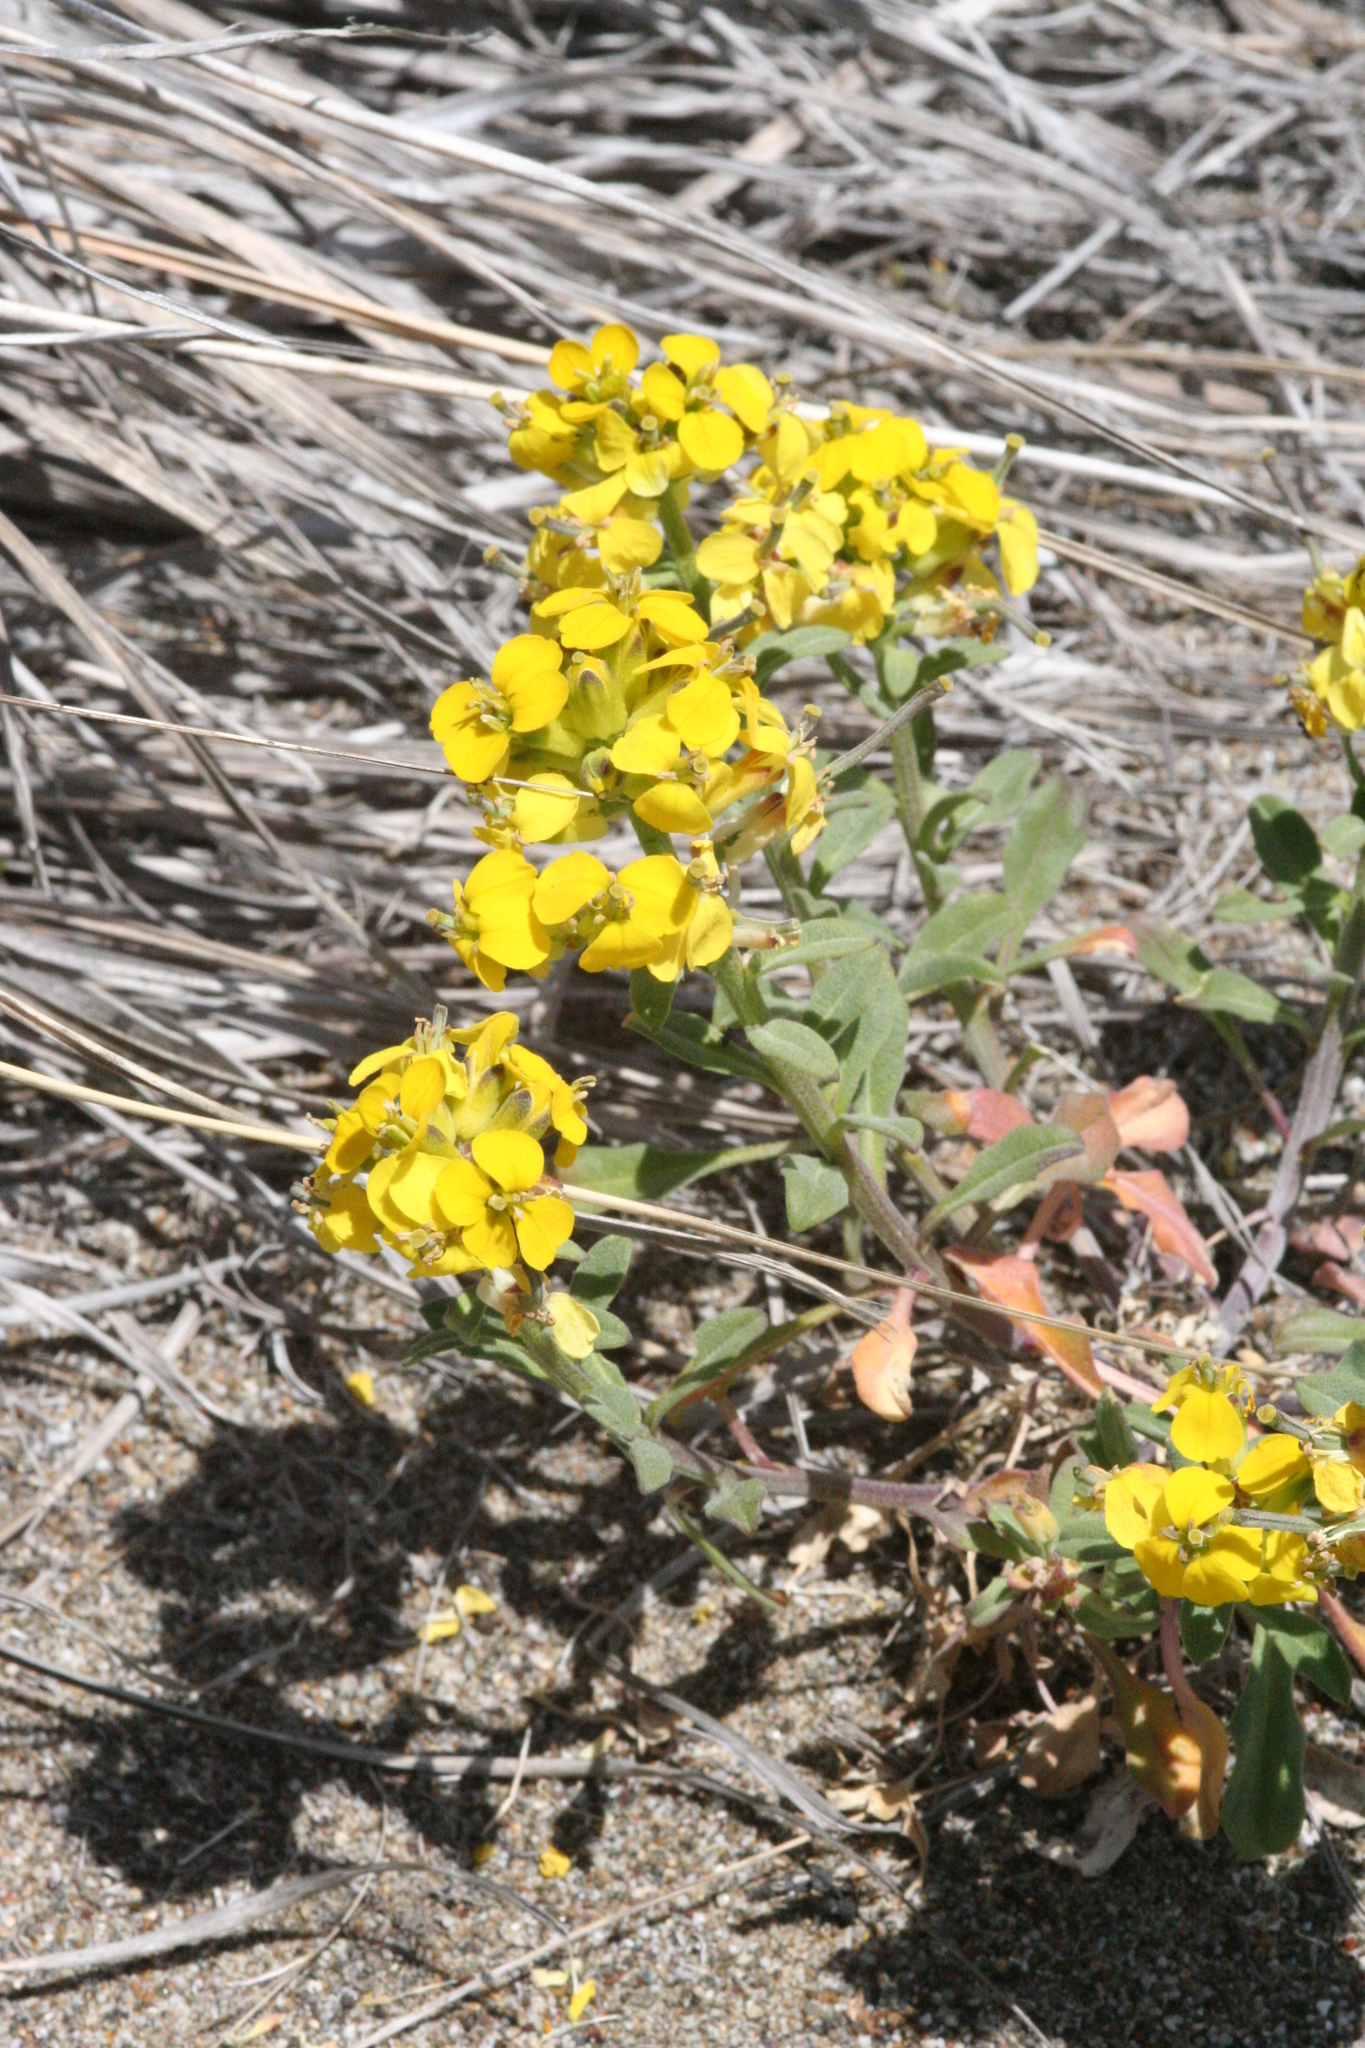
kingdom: Plantae
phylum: Tracheophyta
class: Magnoliopsida
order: Brassicales
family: Brassicaceae
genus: Erysimum
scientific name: Erysimum menziesii
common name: Menzies's wallflower
